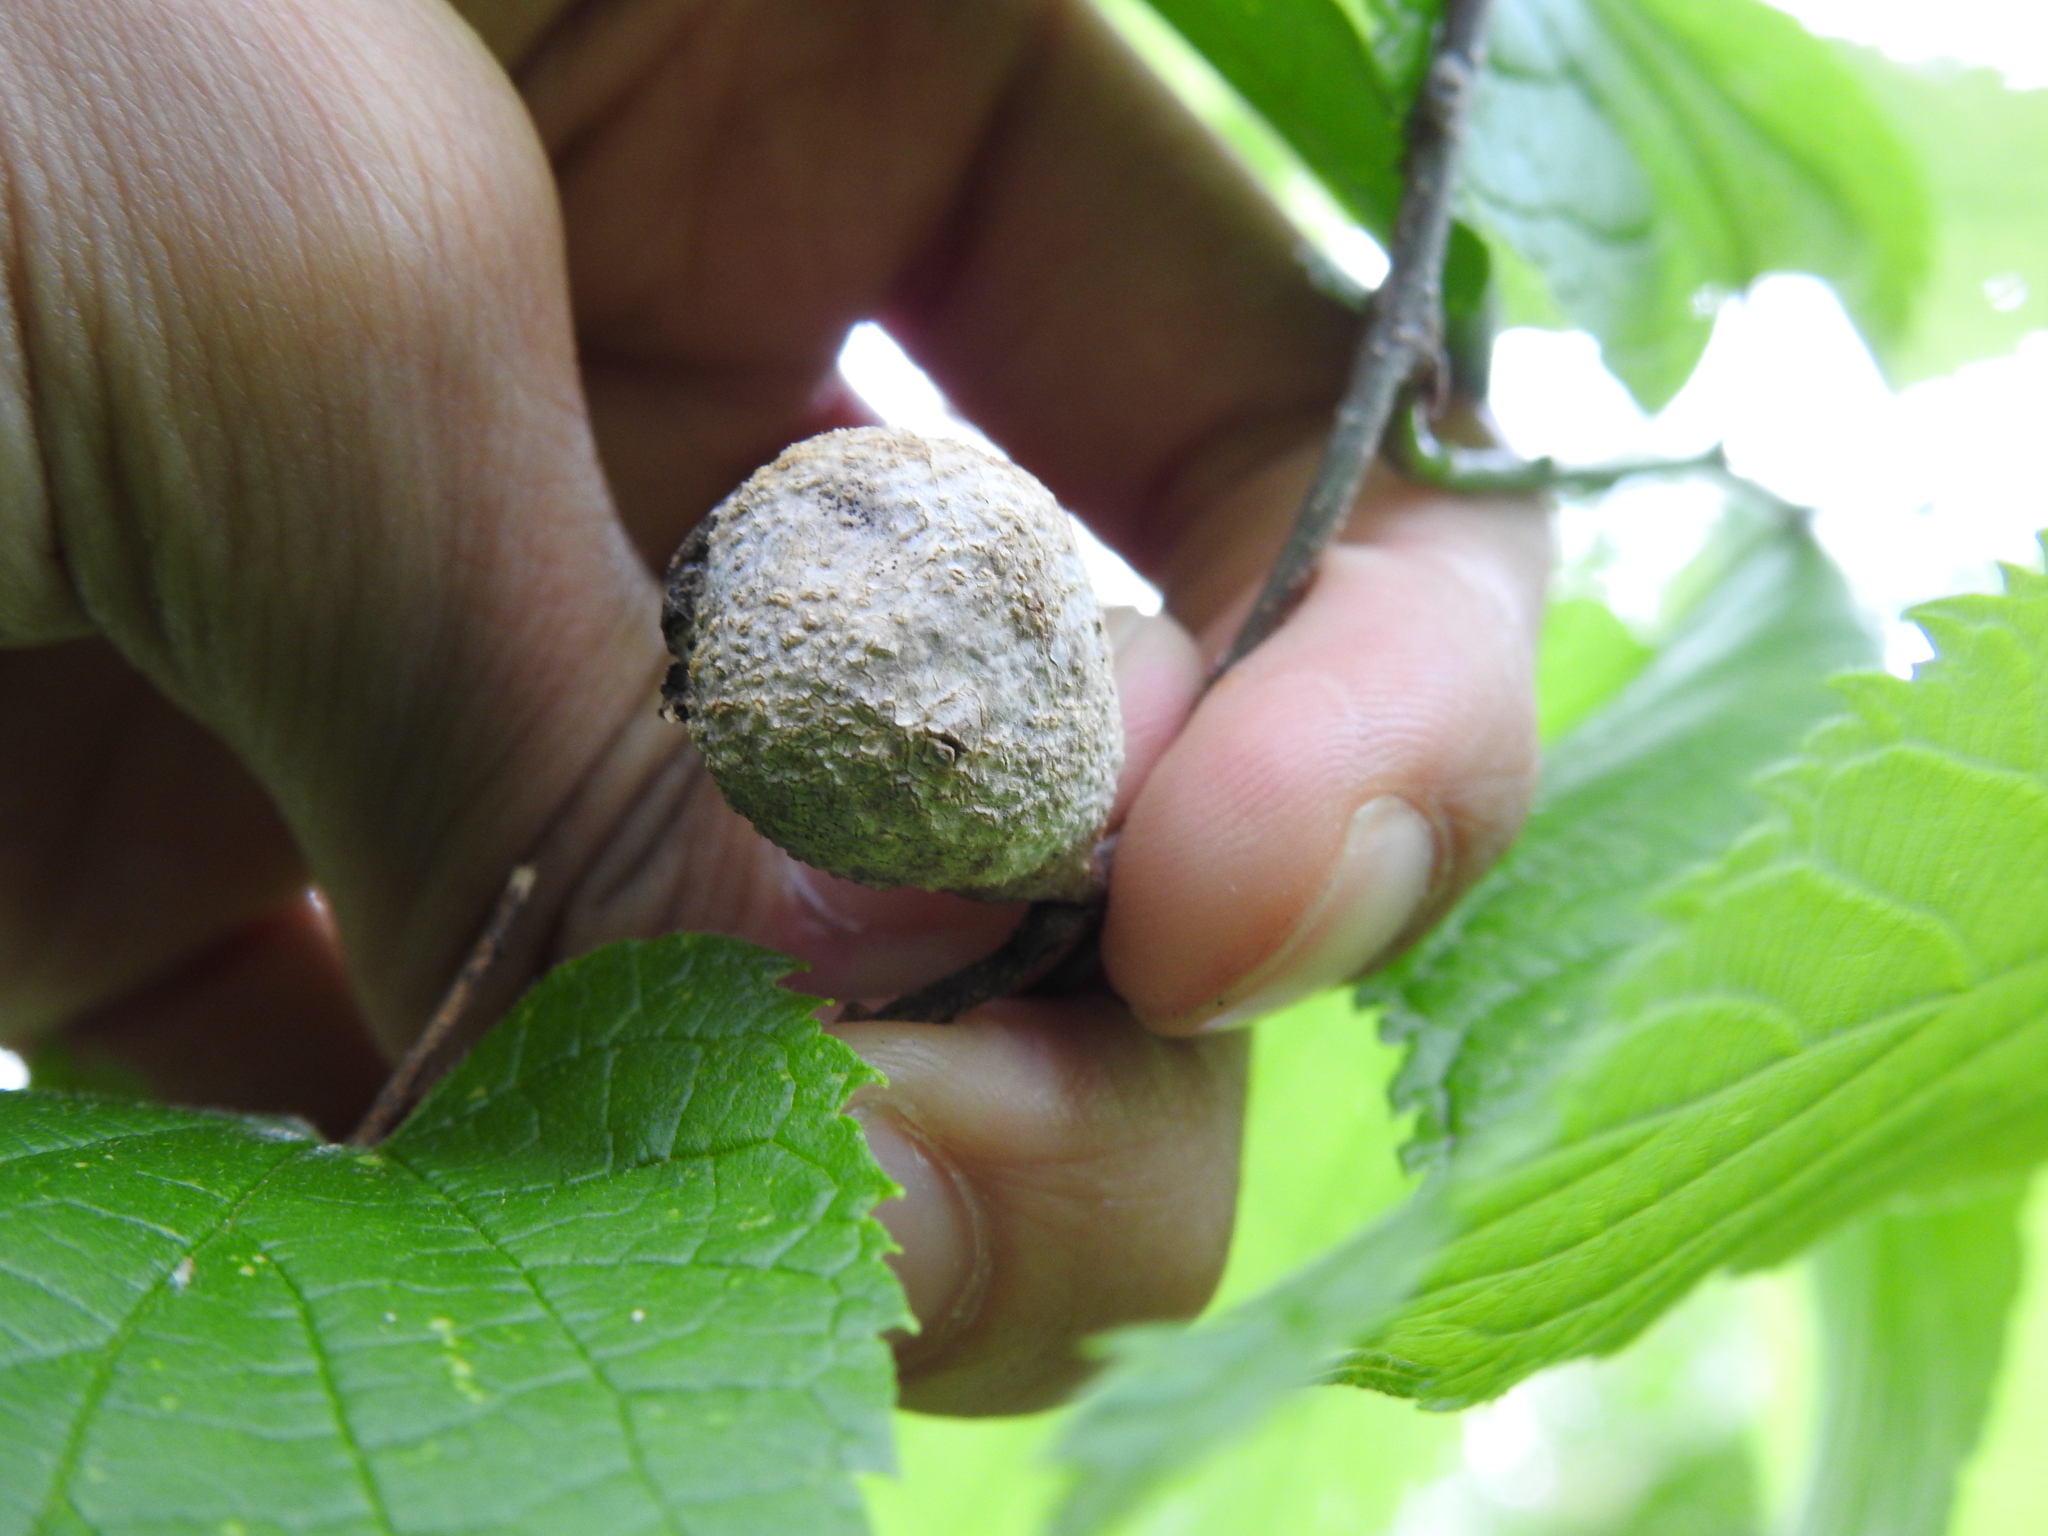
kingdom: Animalia
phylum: Arthropoda
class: Insecta
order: Hemiptera
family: Aphalaridae
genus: Pachypsylla
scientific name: Pachypsylla venusta
